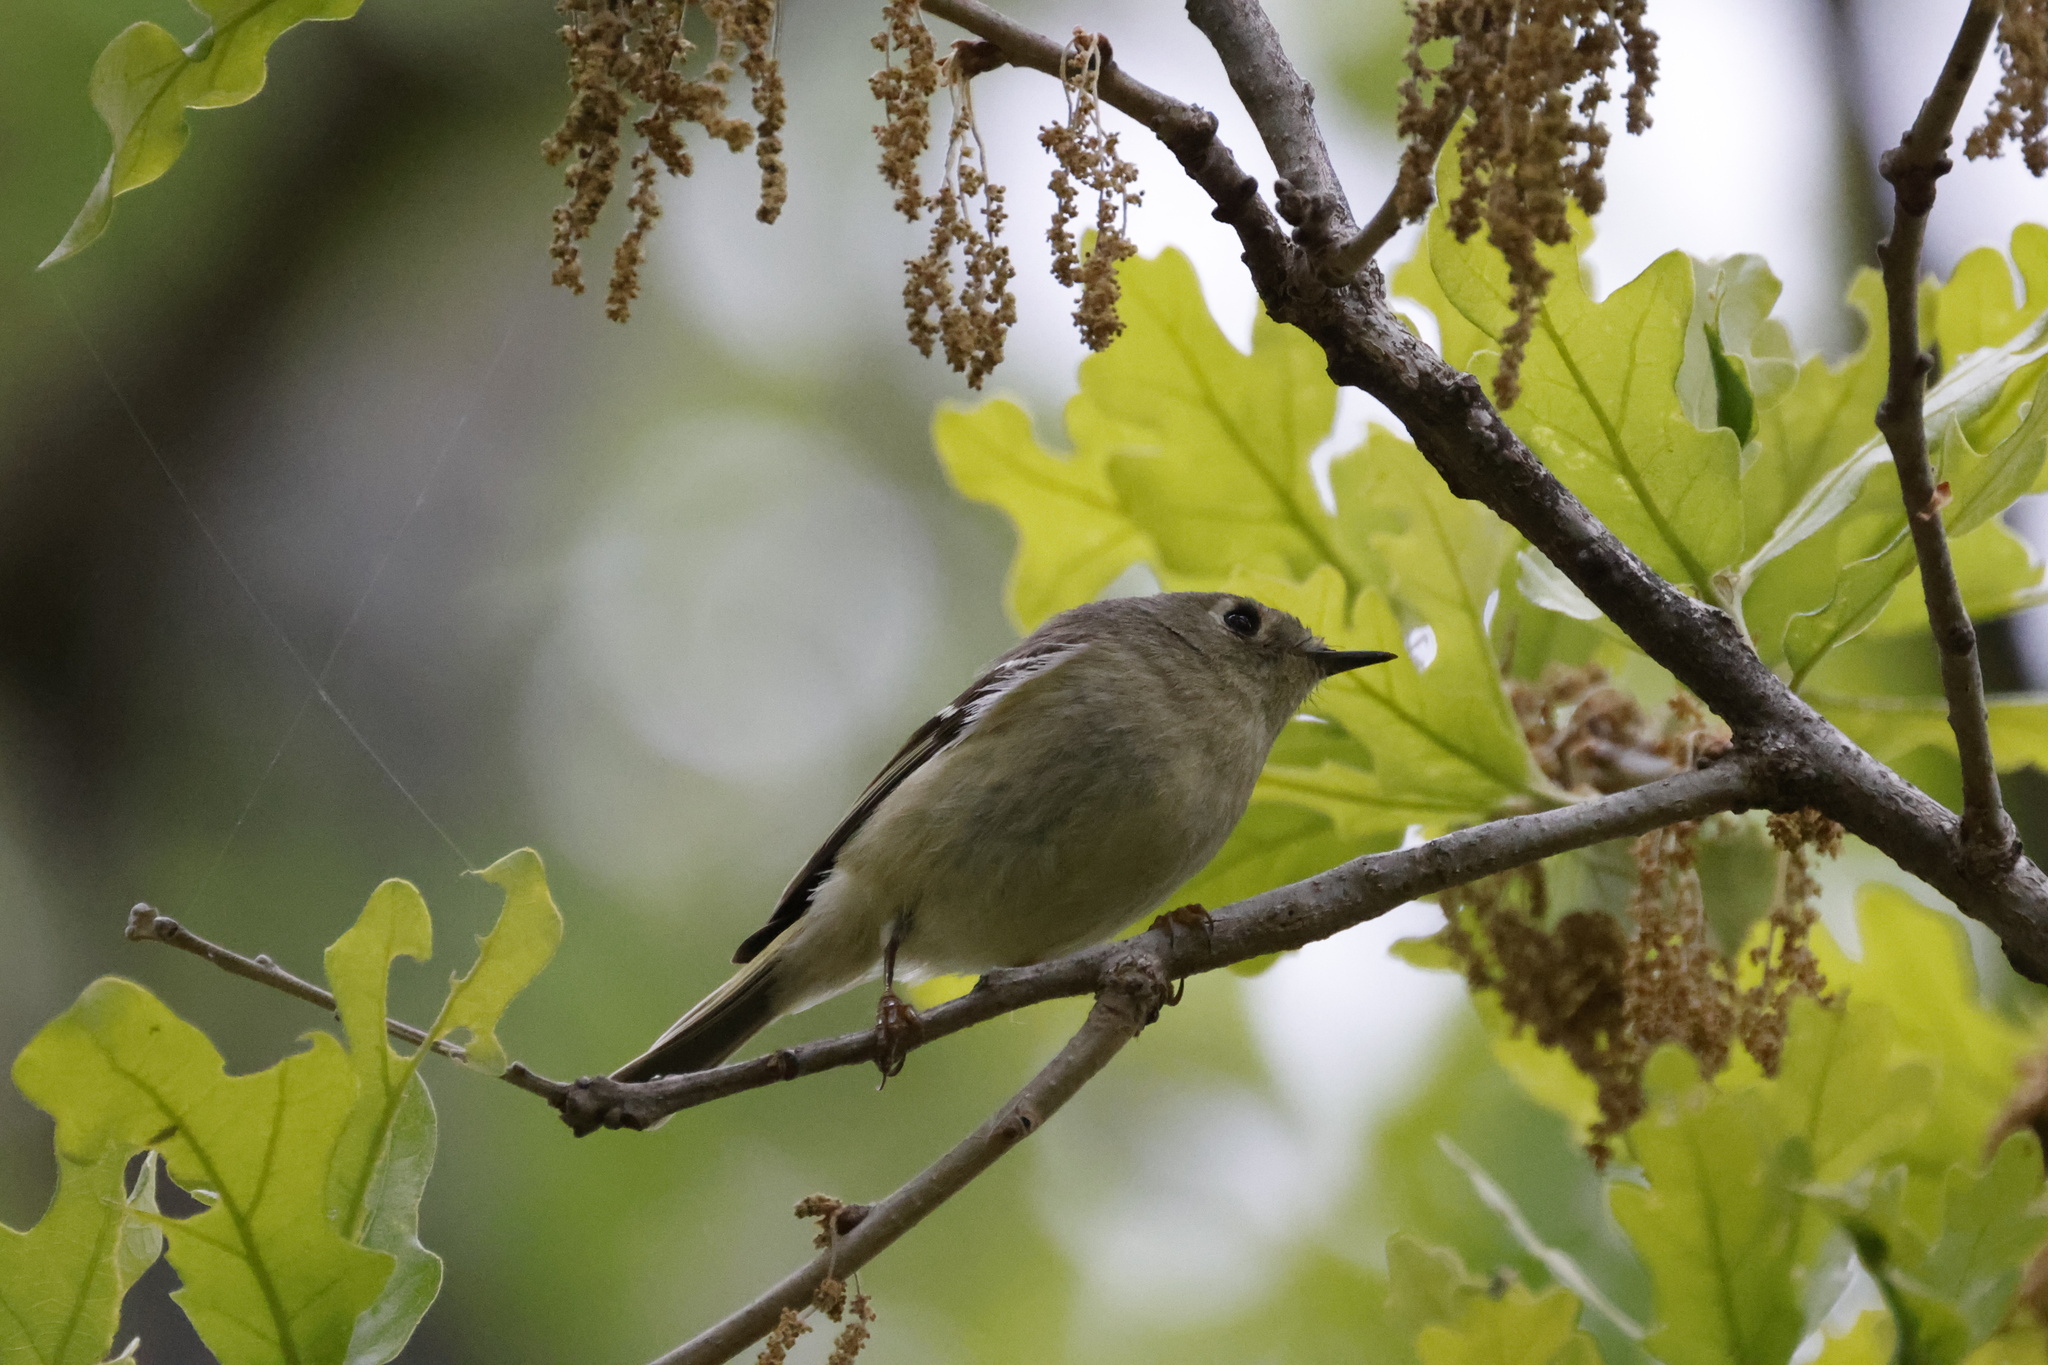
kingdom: Animalia
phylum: Chordata
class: Aves
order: Passeriformes
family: Regulidae
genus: Regulus
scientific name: Regulus calendula
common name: Ruby-crowned kinglet
